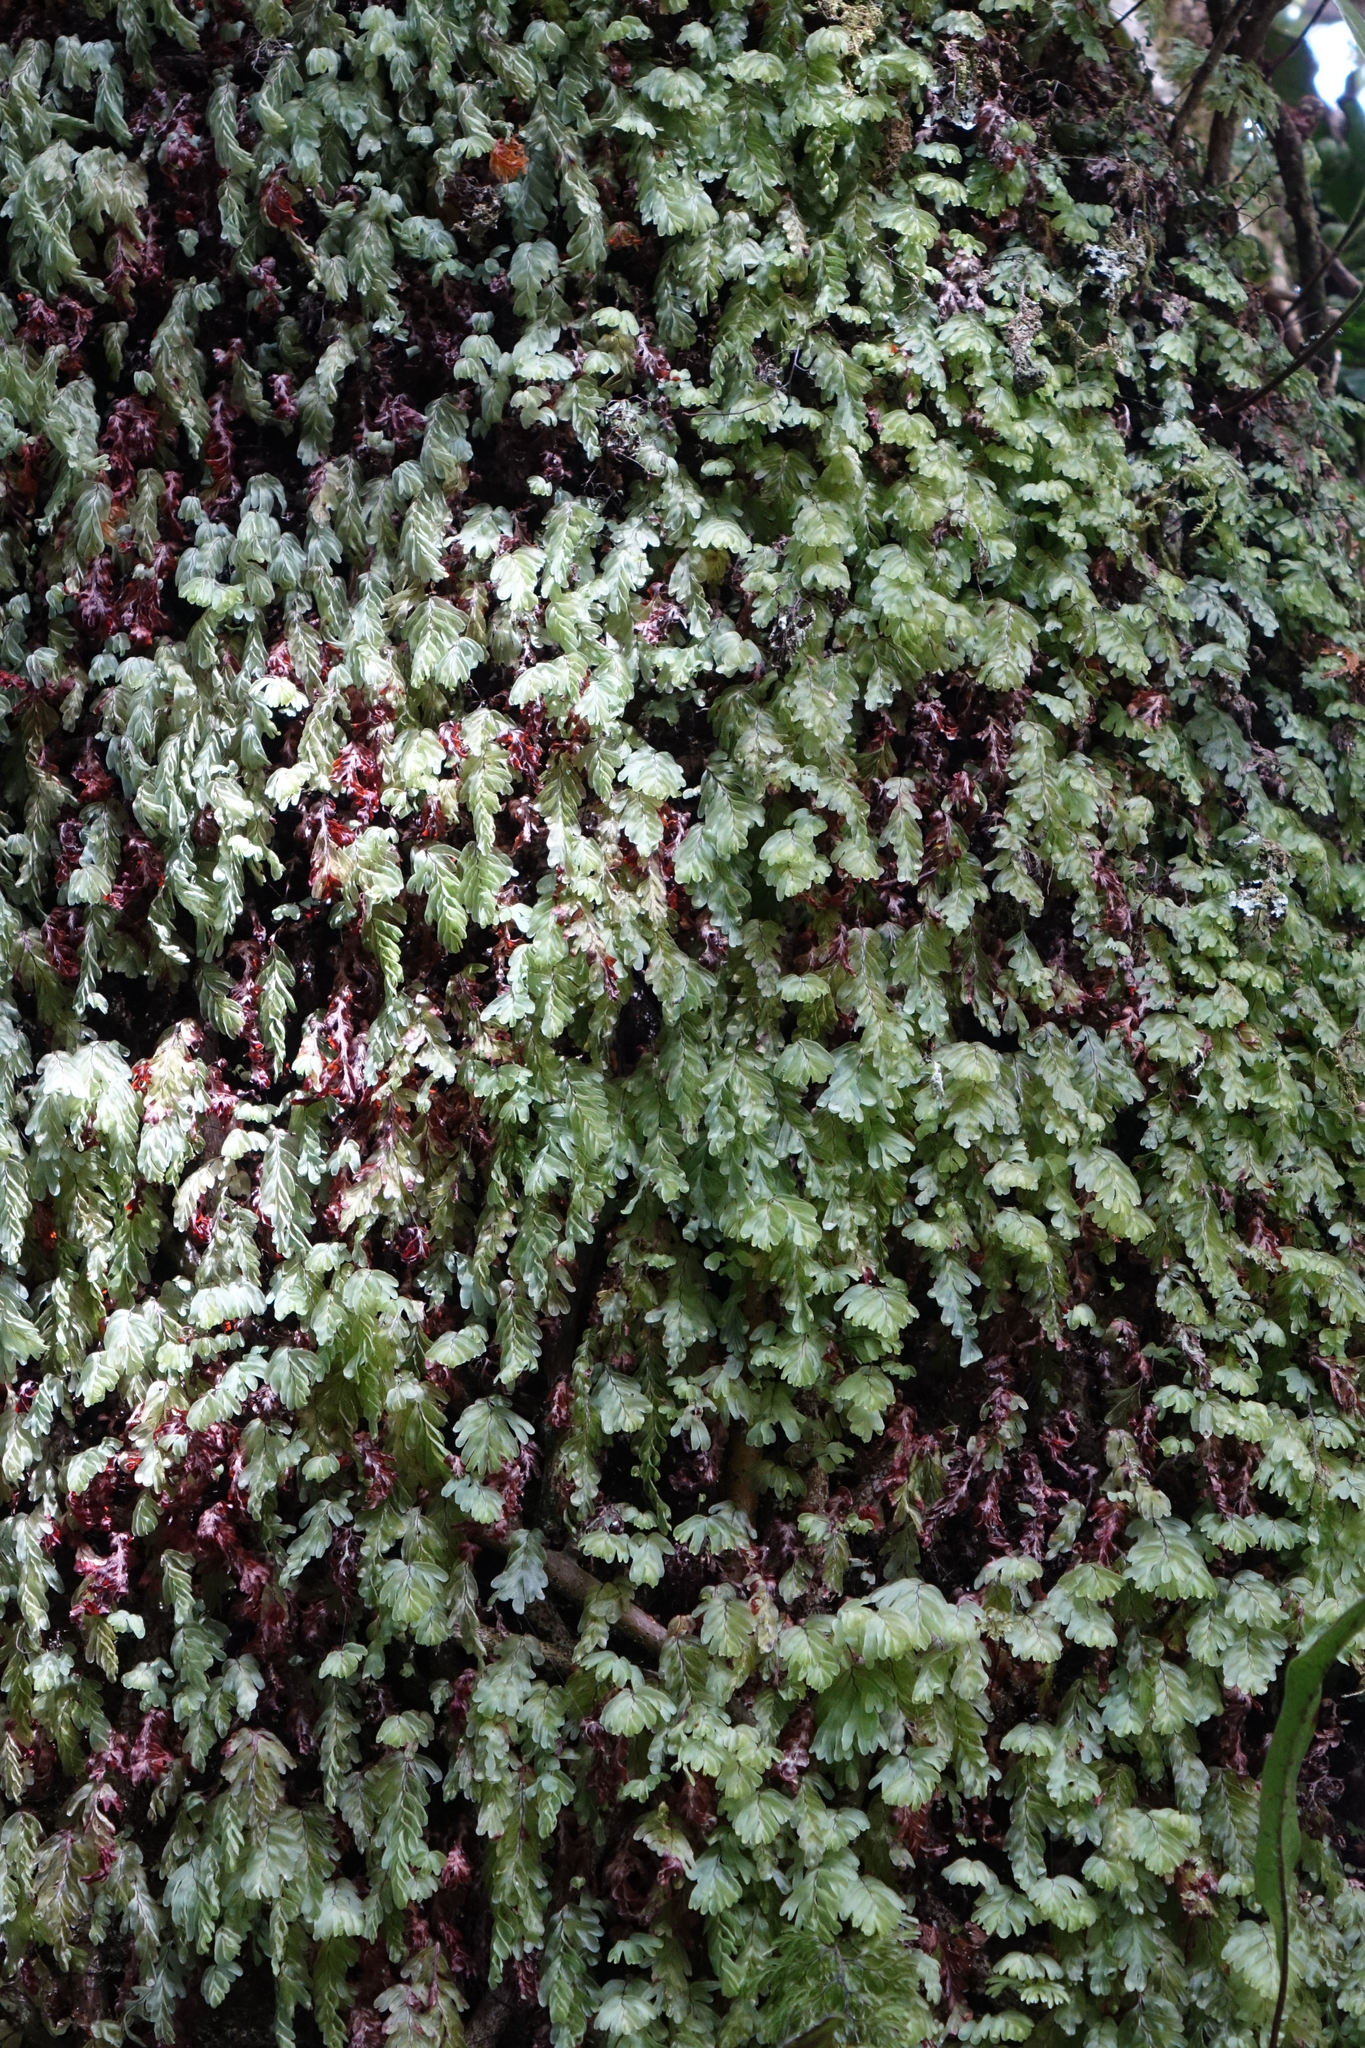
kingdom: Plantae
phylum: Tracheophyta
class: Polypodiopsida
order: Hymenophyllales
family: Hymenophyllaceae
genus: Hymenophyllum
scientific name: Hymenophyllum rarum
